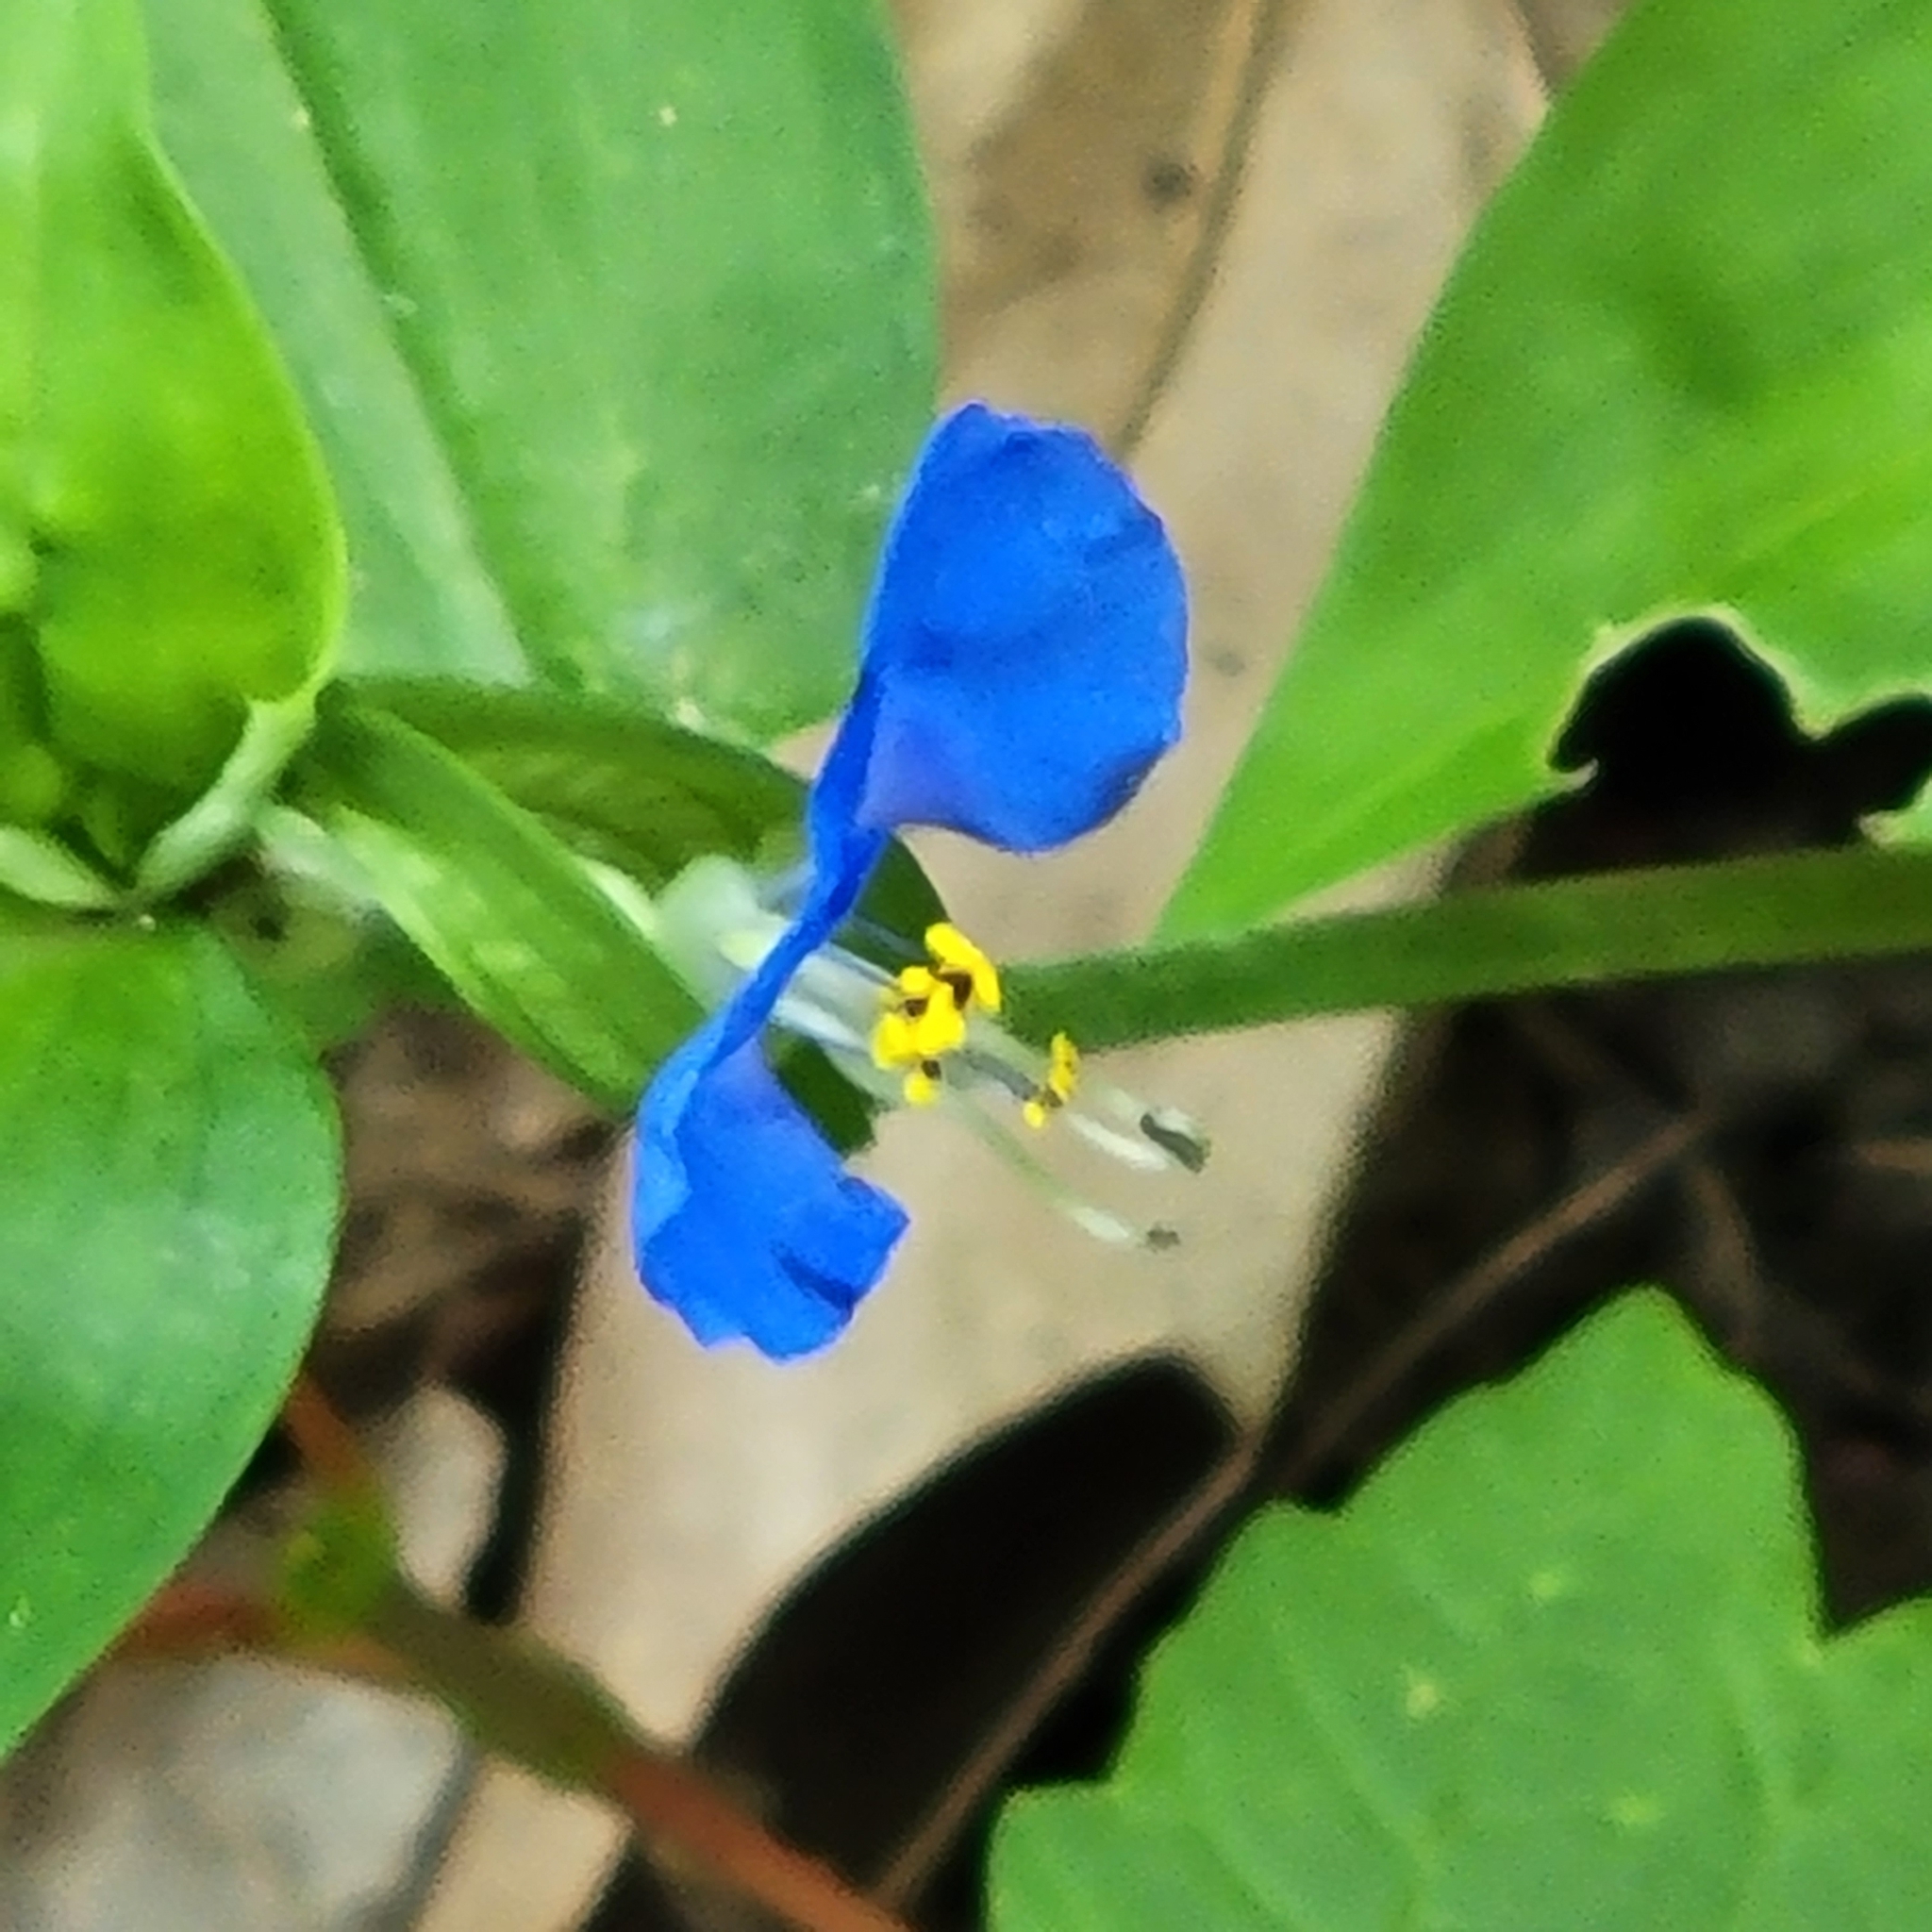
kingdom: Plantae
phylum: Tracheophyta
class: Liliopsida
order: Commelinales
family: Commelinaceae
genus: Commelina
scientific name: Commelina communis
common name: Asiatic dayflower
